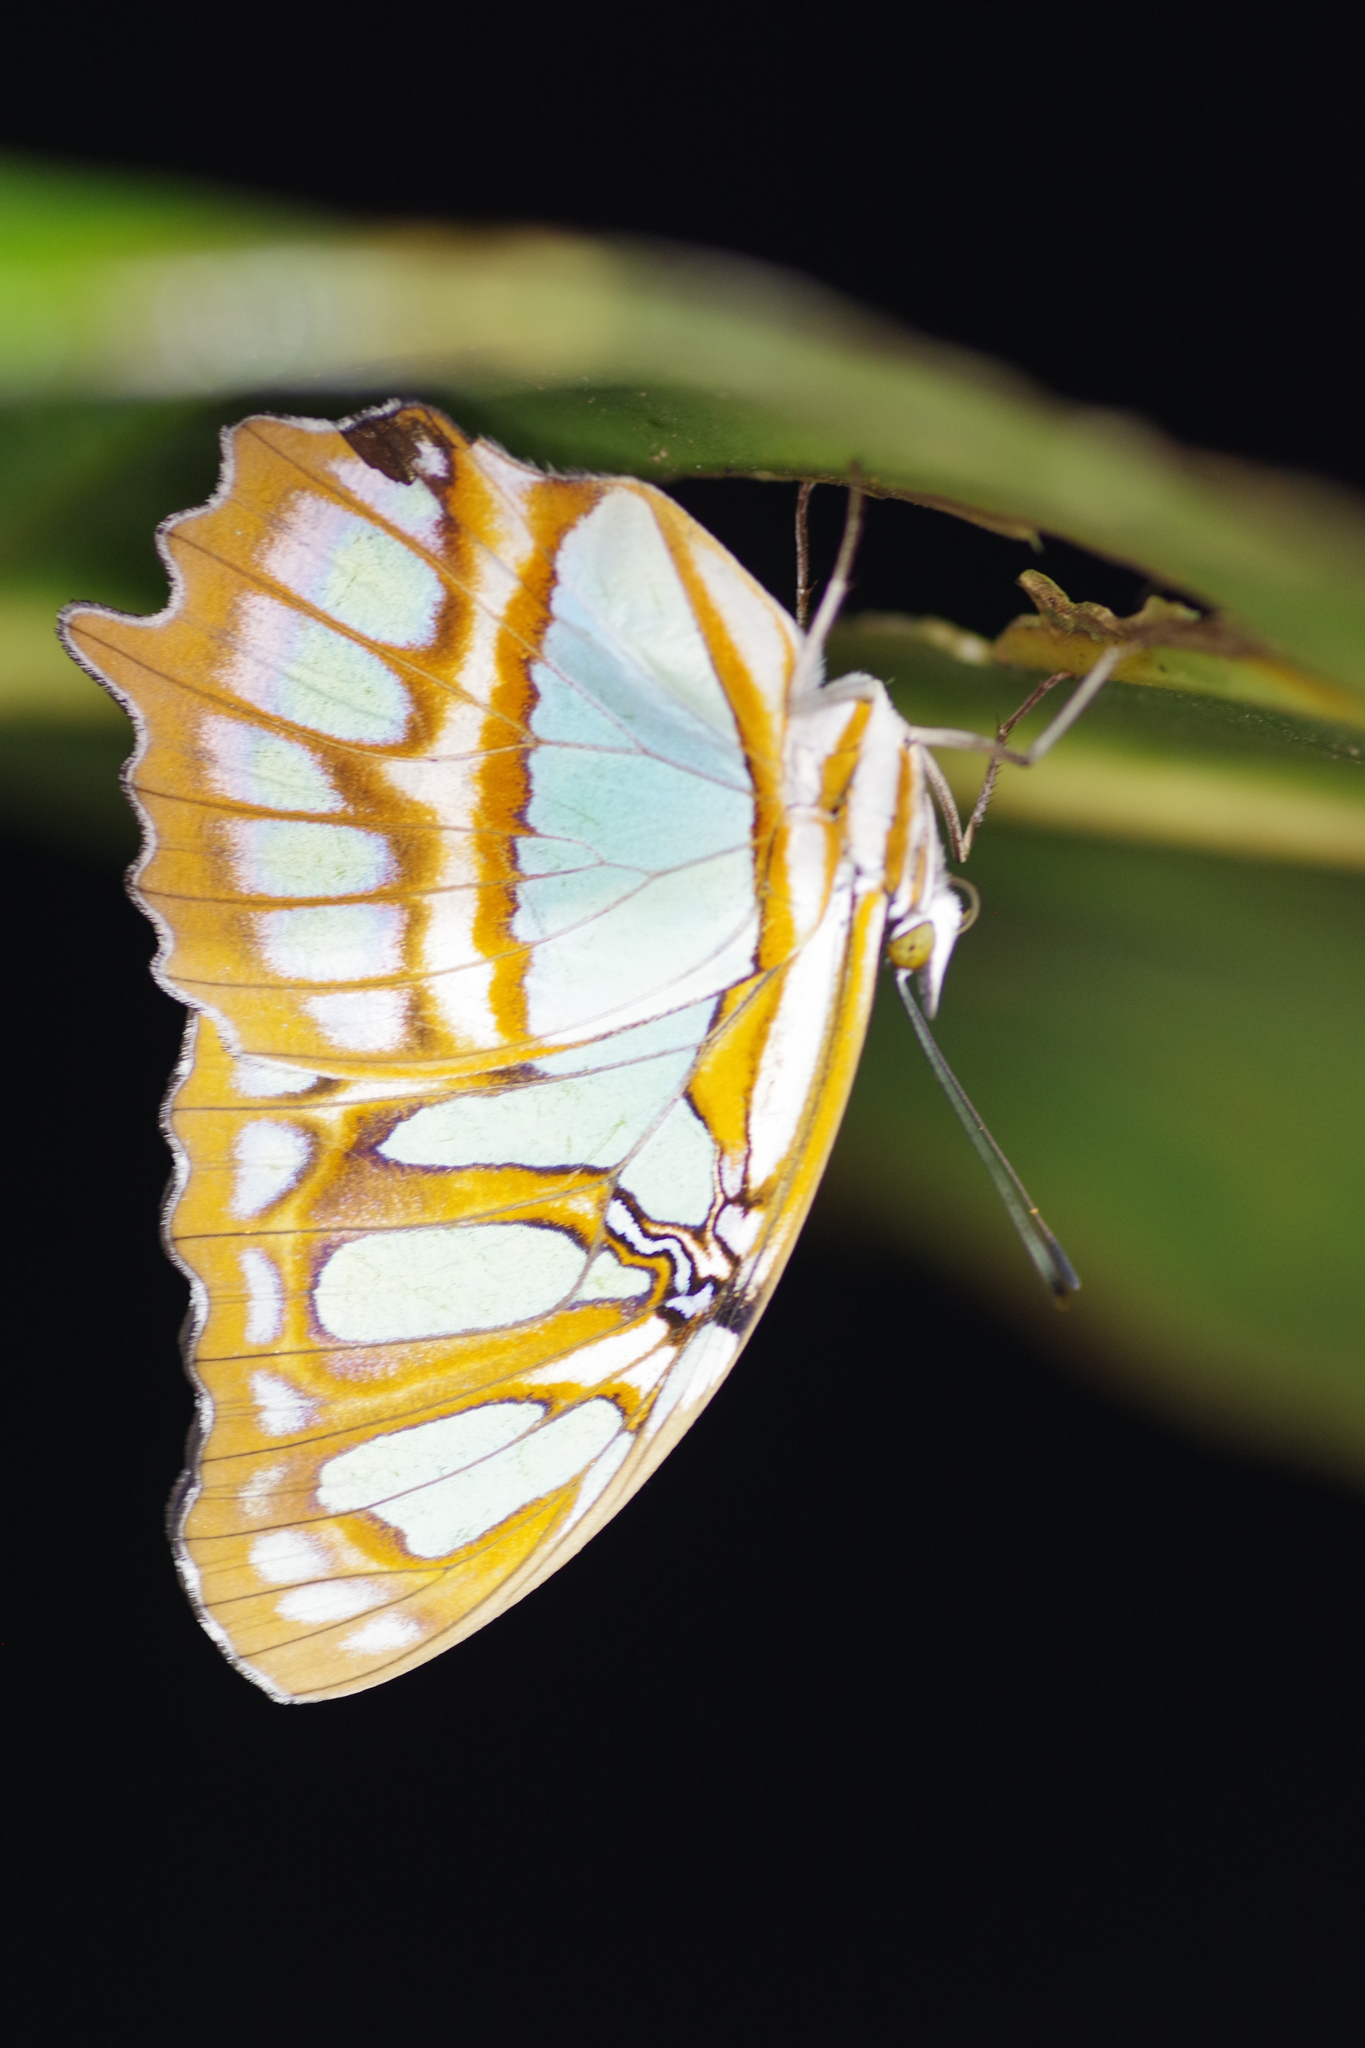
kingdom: Animalia
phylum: Arthropoda
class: Insecta
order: Lepidoptera
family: Nymphalidae
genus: Siproeta
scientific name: Siproeta stelenes
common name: Malachite
